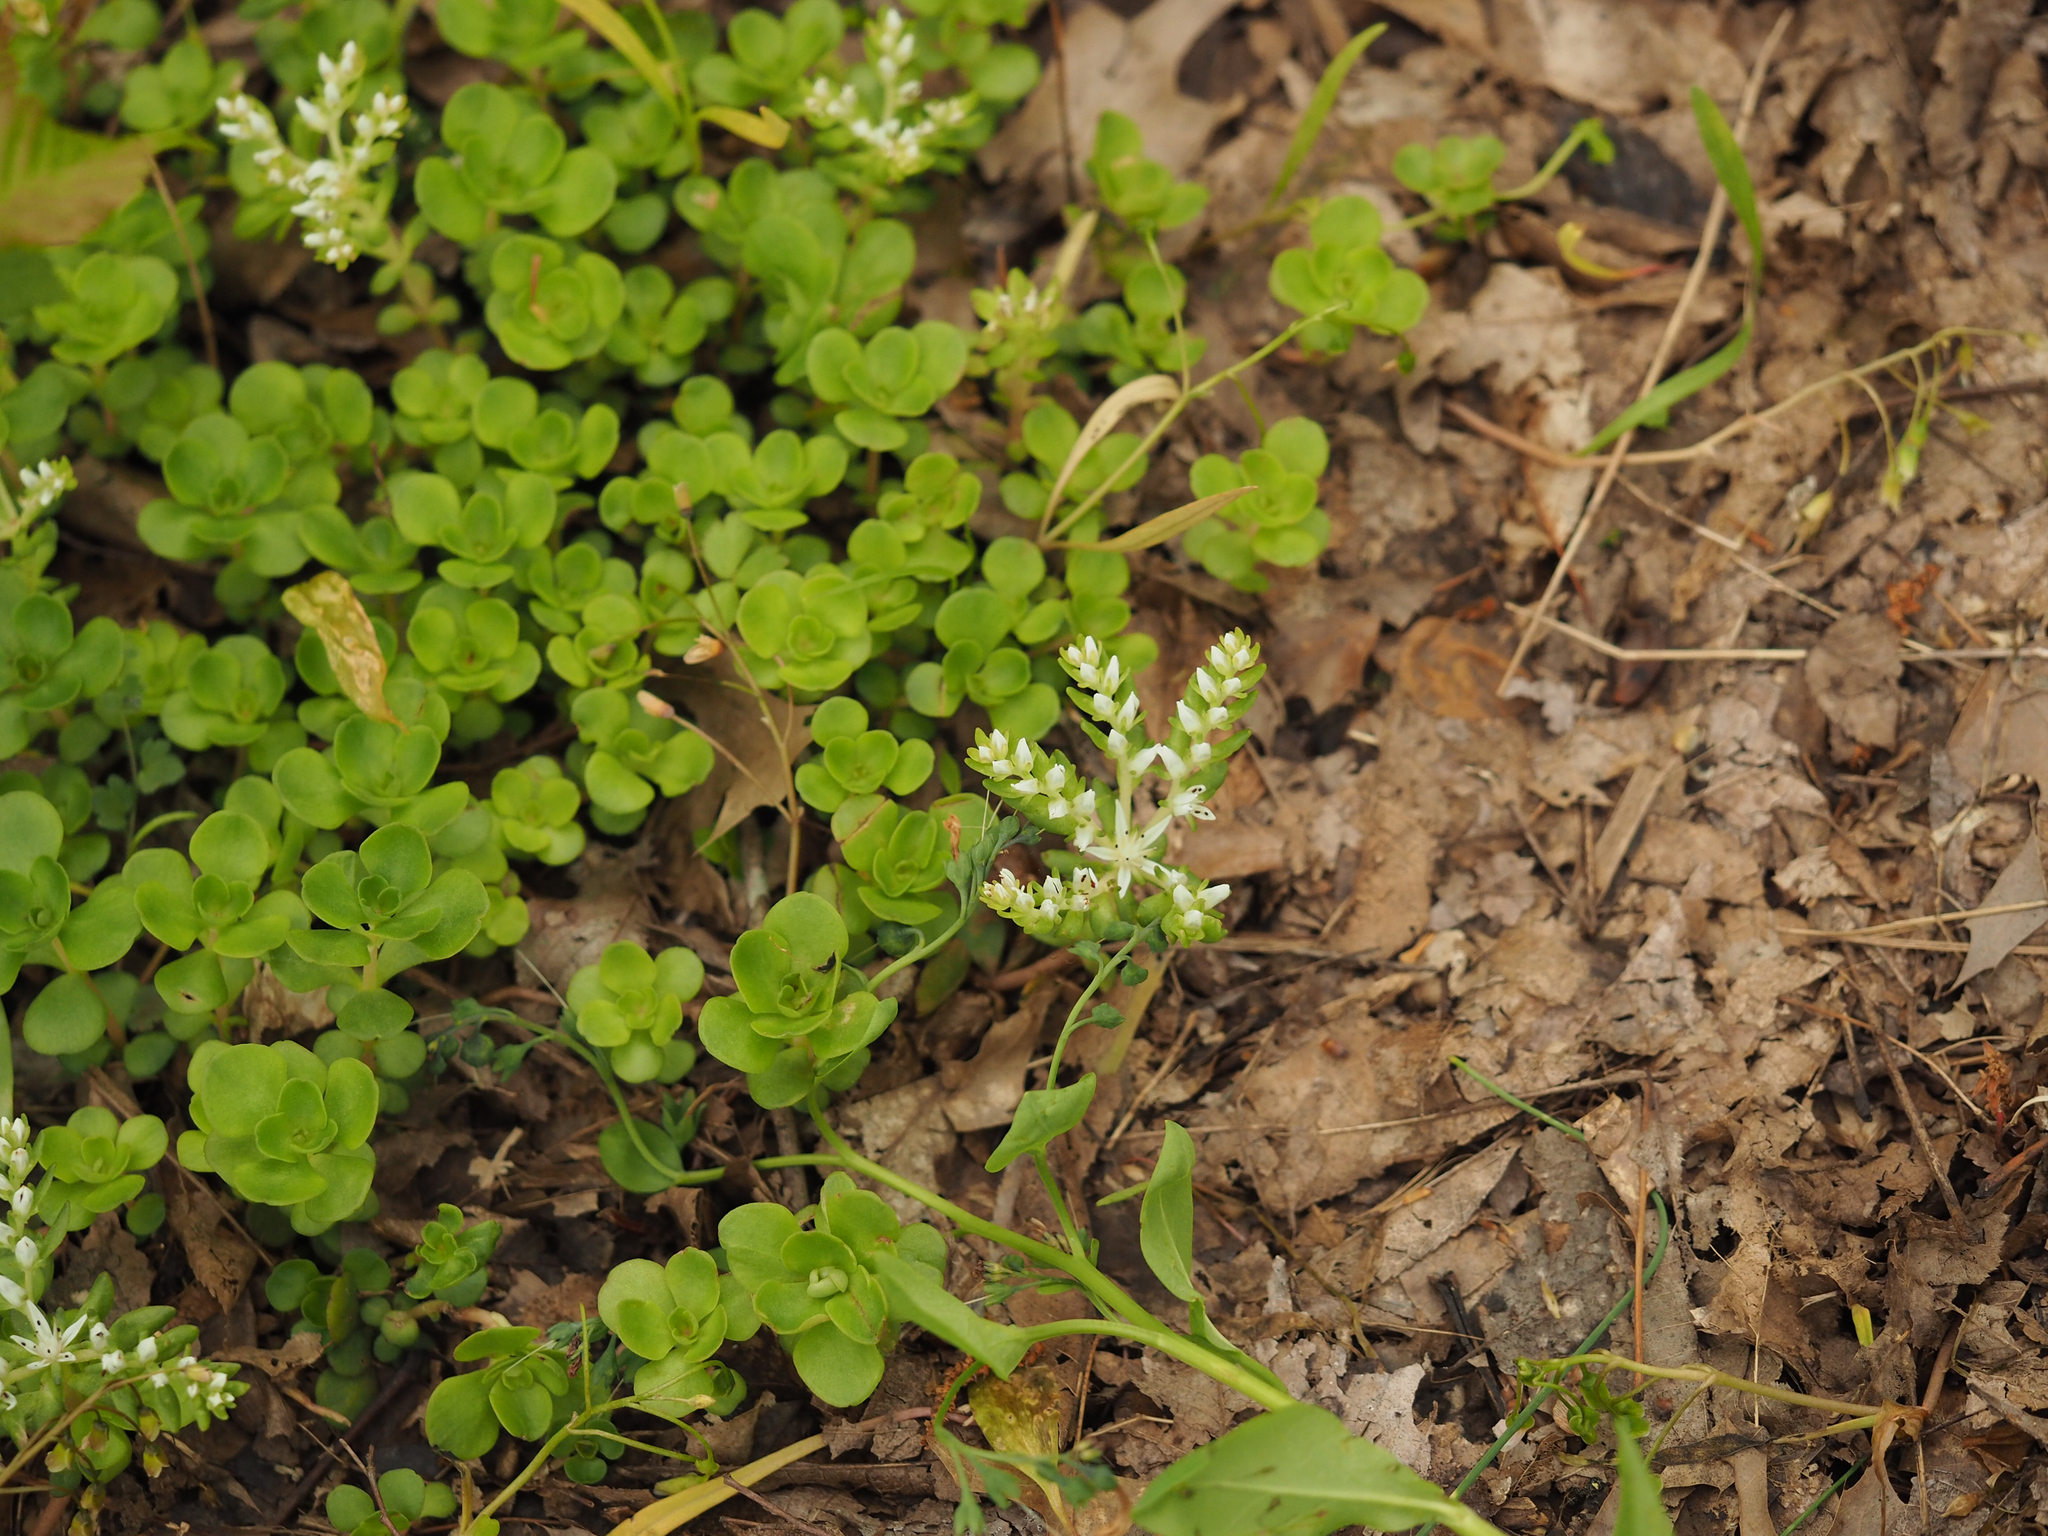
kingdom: Plantae
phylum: Tracheophyta
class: Magnoliopsida
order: Saxifragales
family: Crassulaceae
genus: Sedum
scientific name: Sedum ternatum
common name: Wild stonecrop
